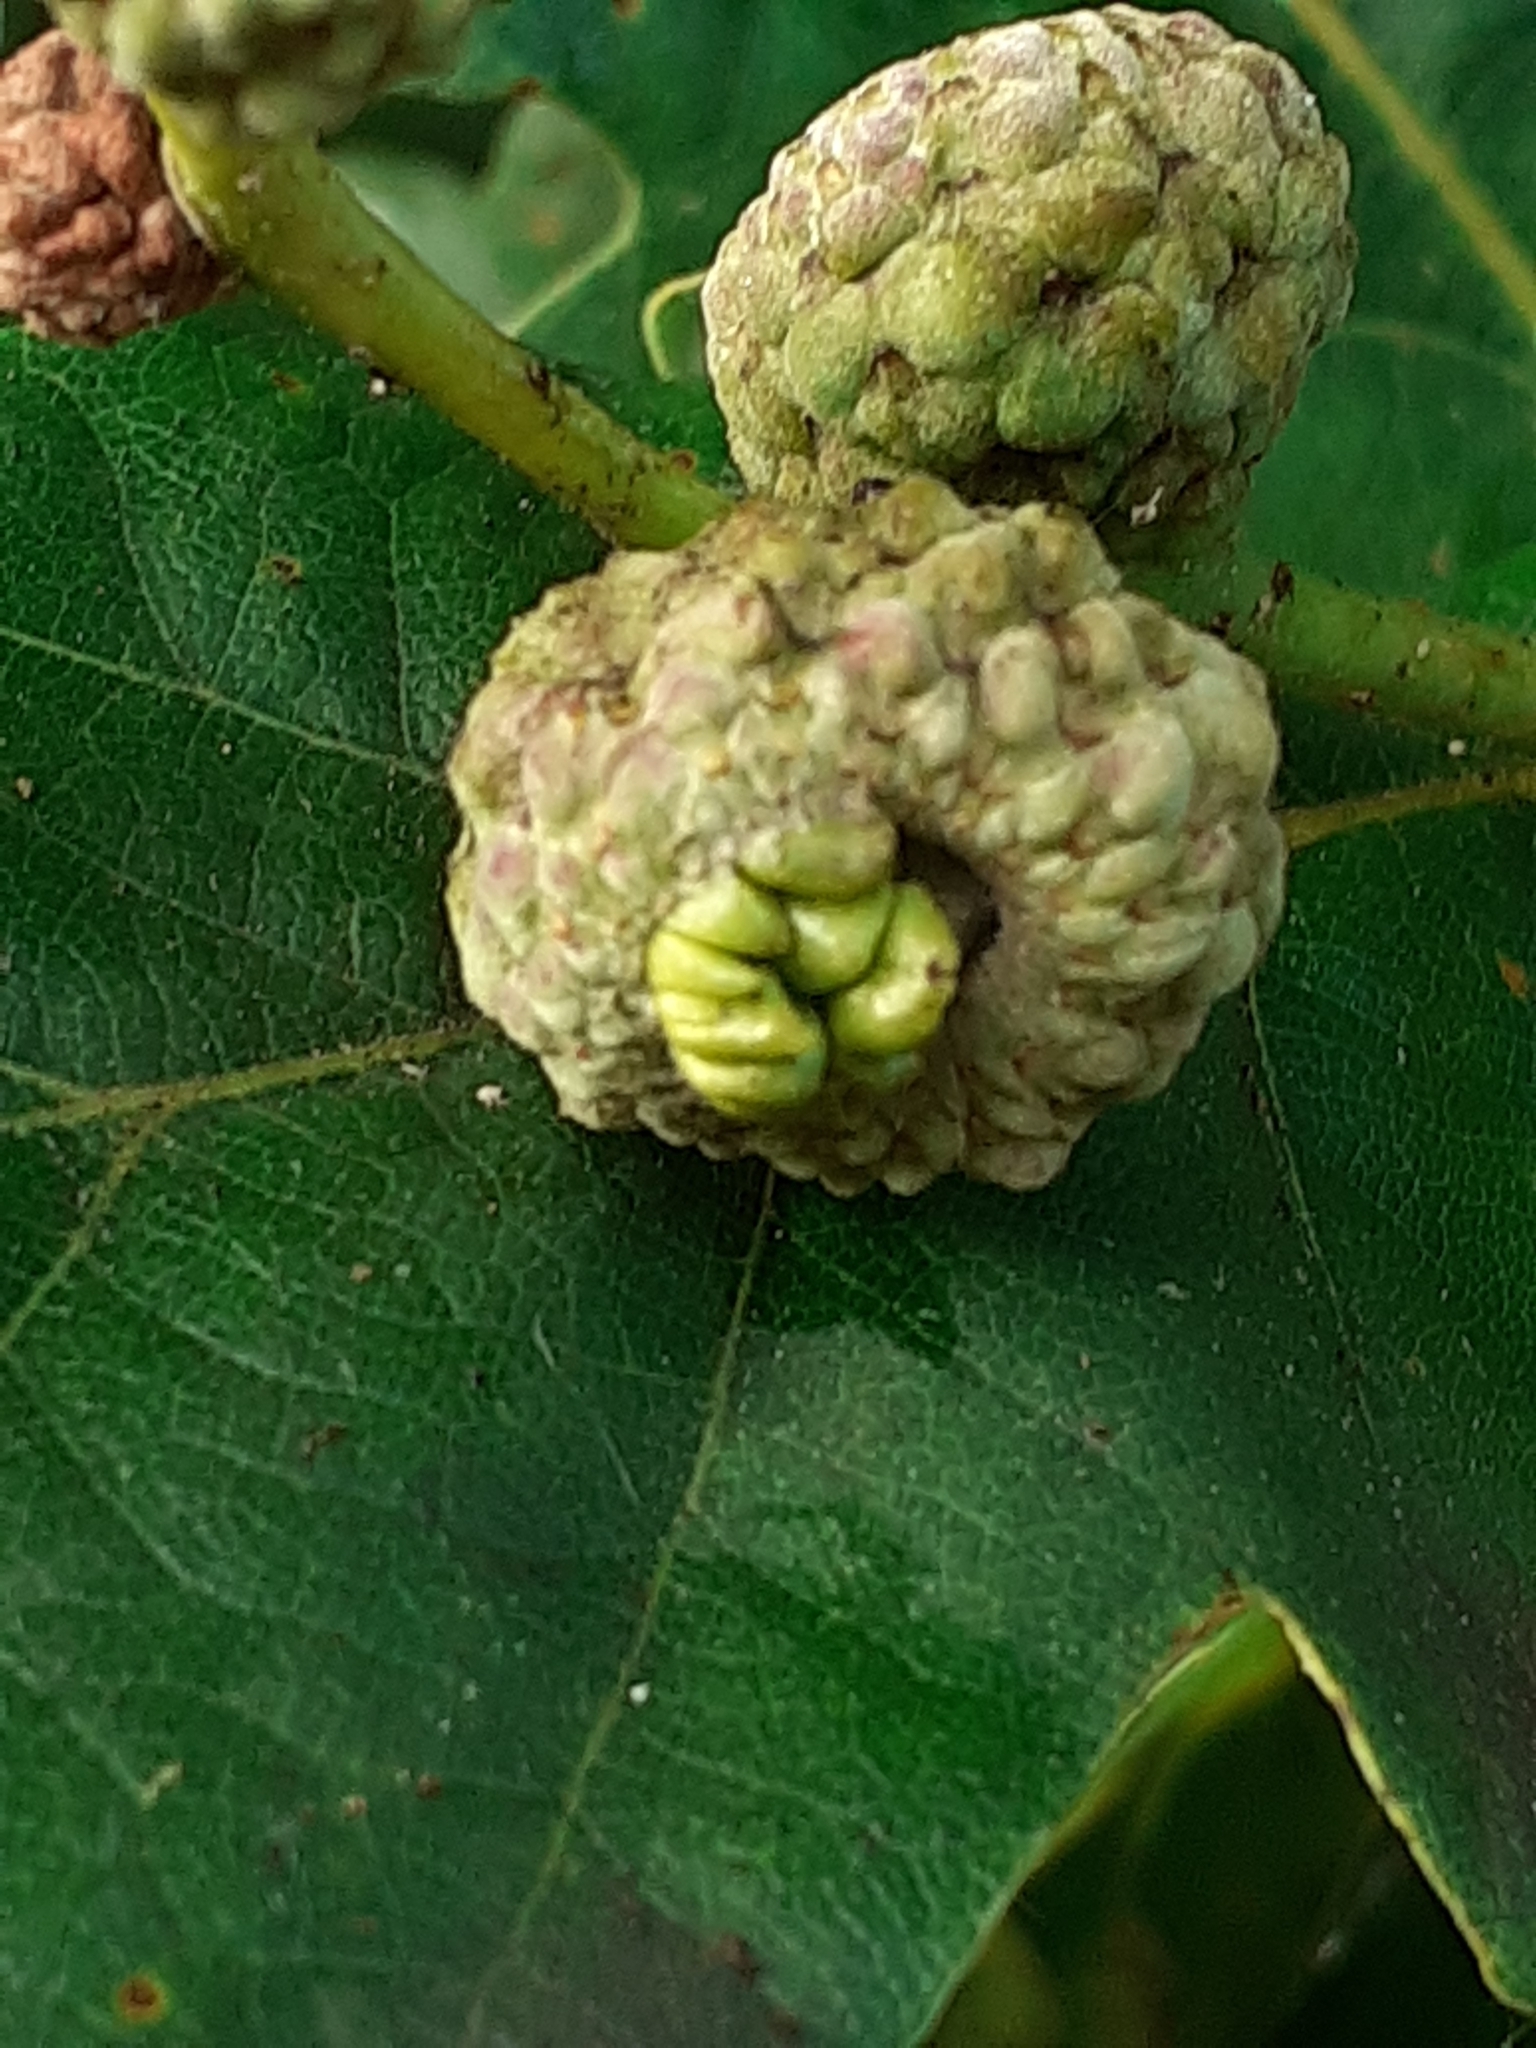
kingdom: Animalia
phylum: Arthropoda
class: Insecta
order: Hymenoptera
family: Cynipidae
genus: Andricus
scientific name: Andricus quercuscalicis
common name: Knopper gall
